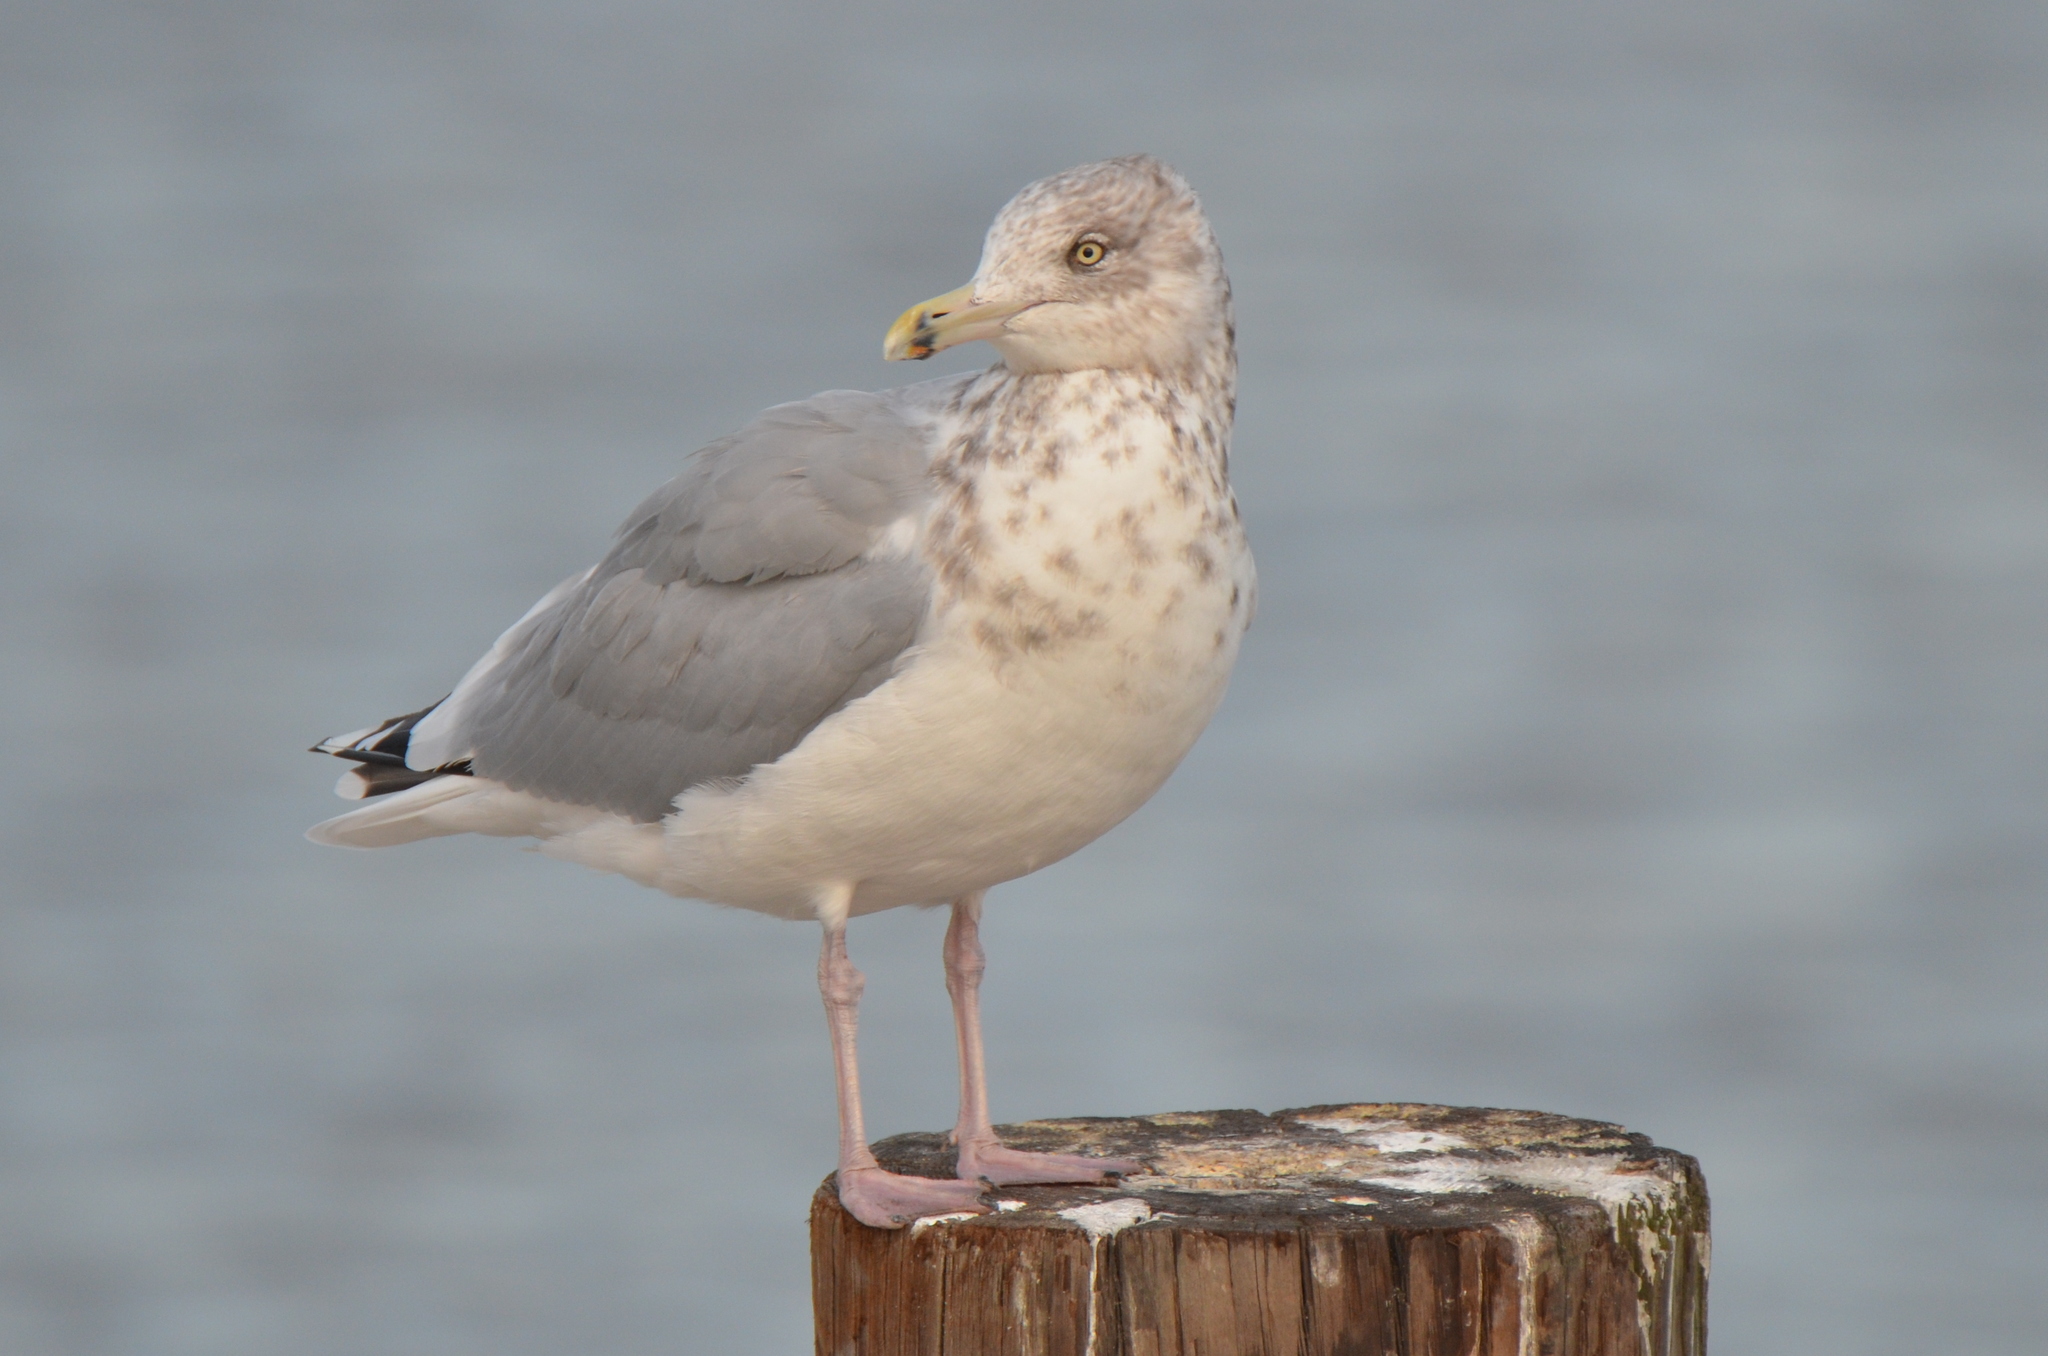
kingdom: Animalia
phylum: Chordata
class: Aves
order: Charadriiformes
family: Laridae
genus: Larus
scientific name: Larus argentatus
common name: Herring gull
